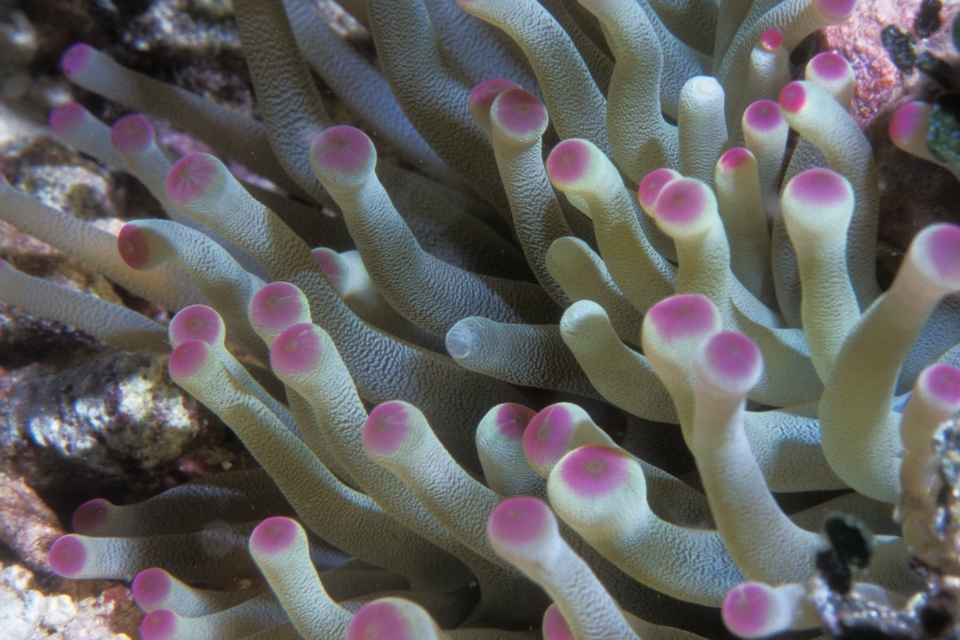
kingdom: Animalia
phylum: Cnidaria
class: Anthozoa
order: Actiniaria
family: Actiniidae
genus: Condylactis
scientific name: Condylactis gigantea
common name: Giant caribbean anemone
